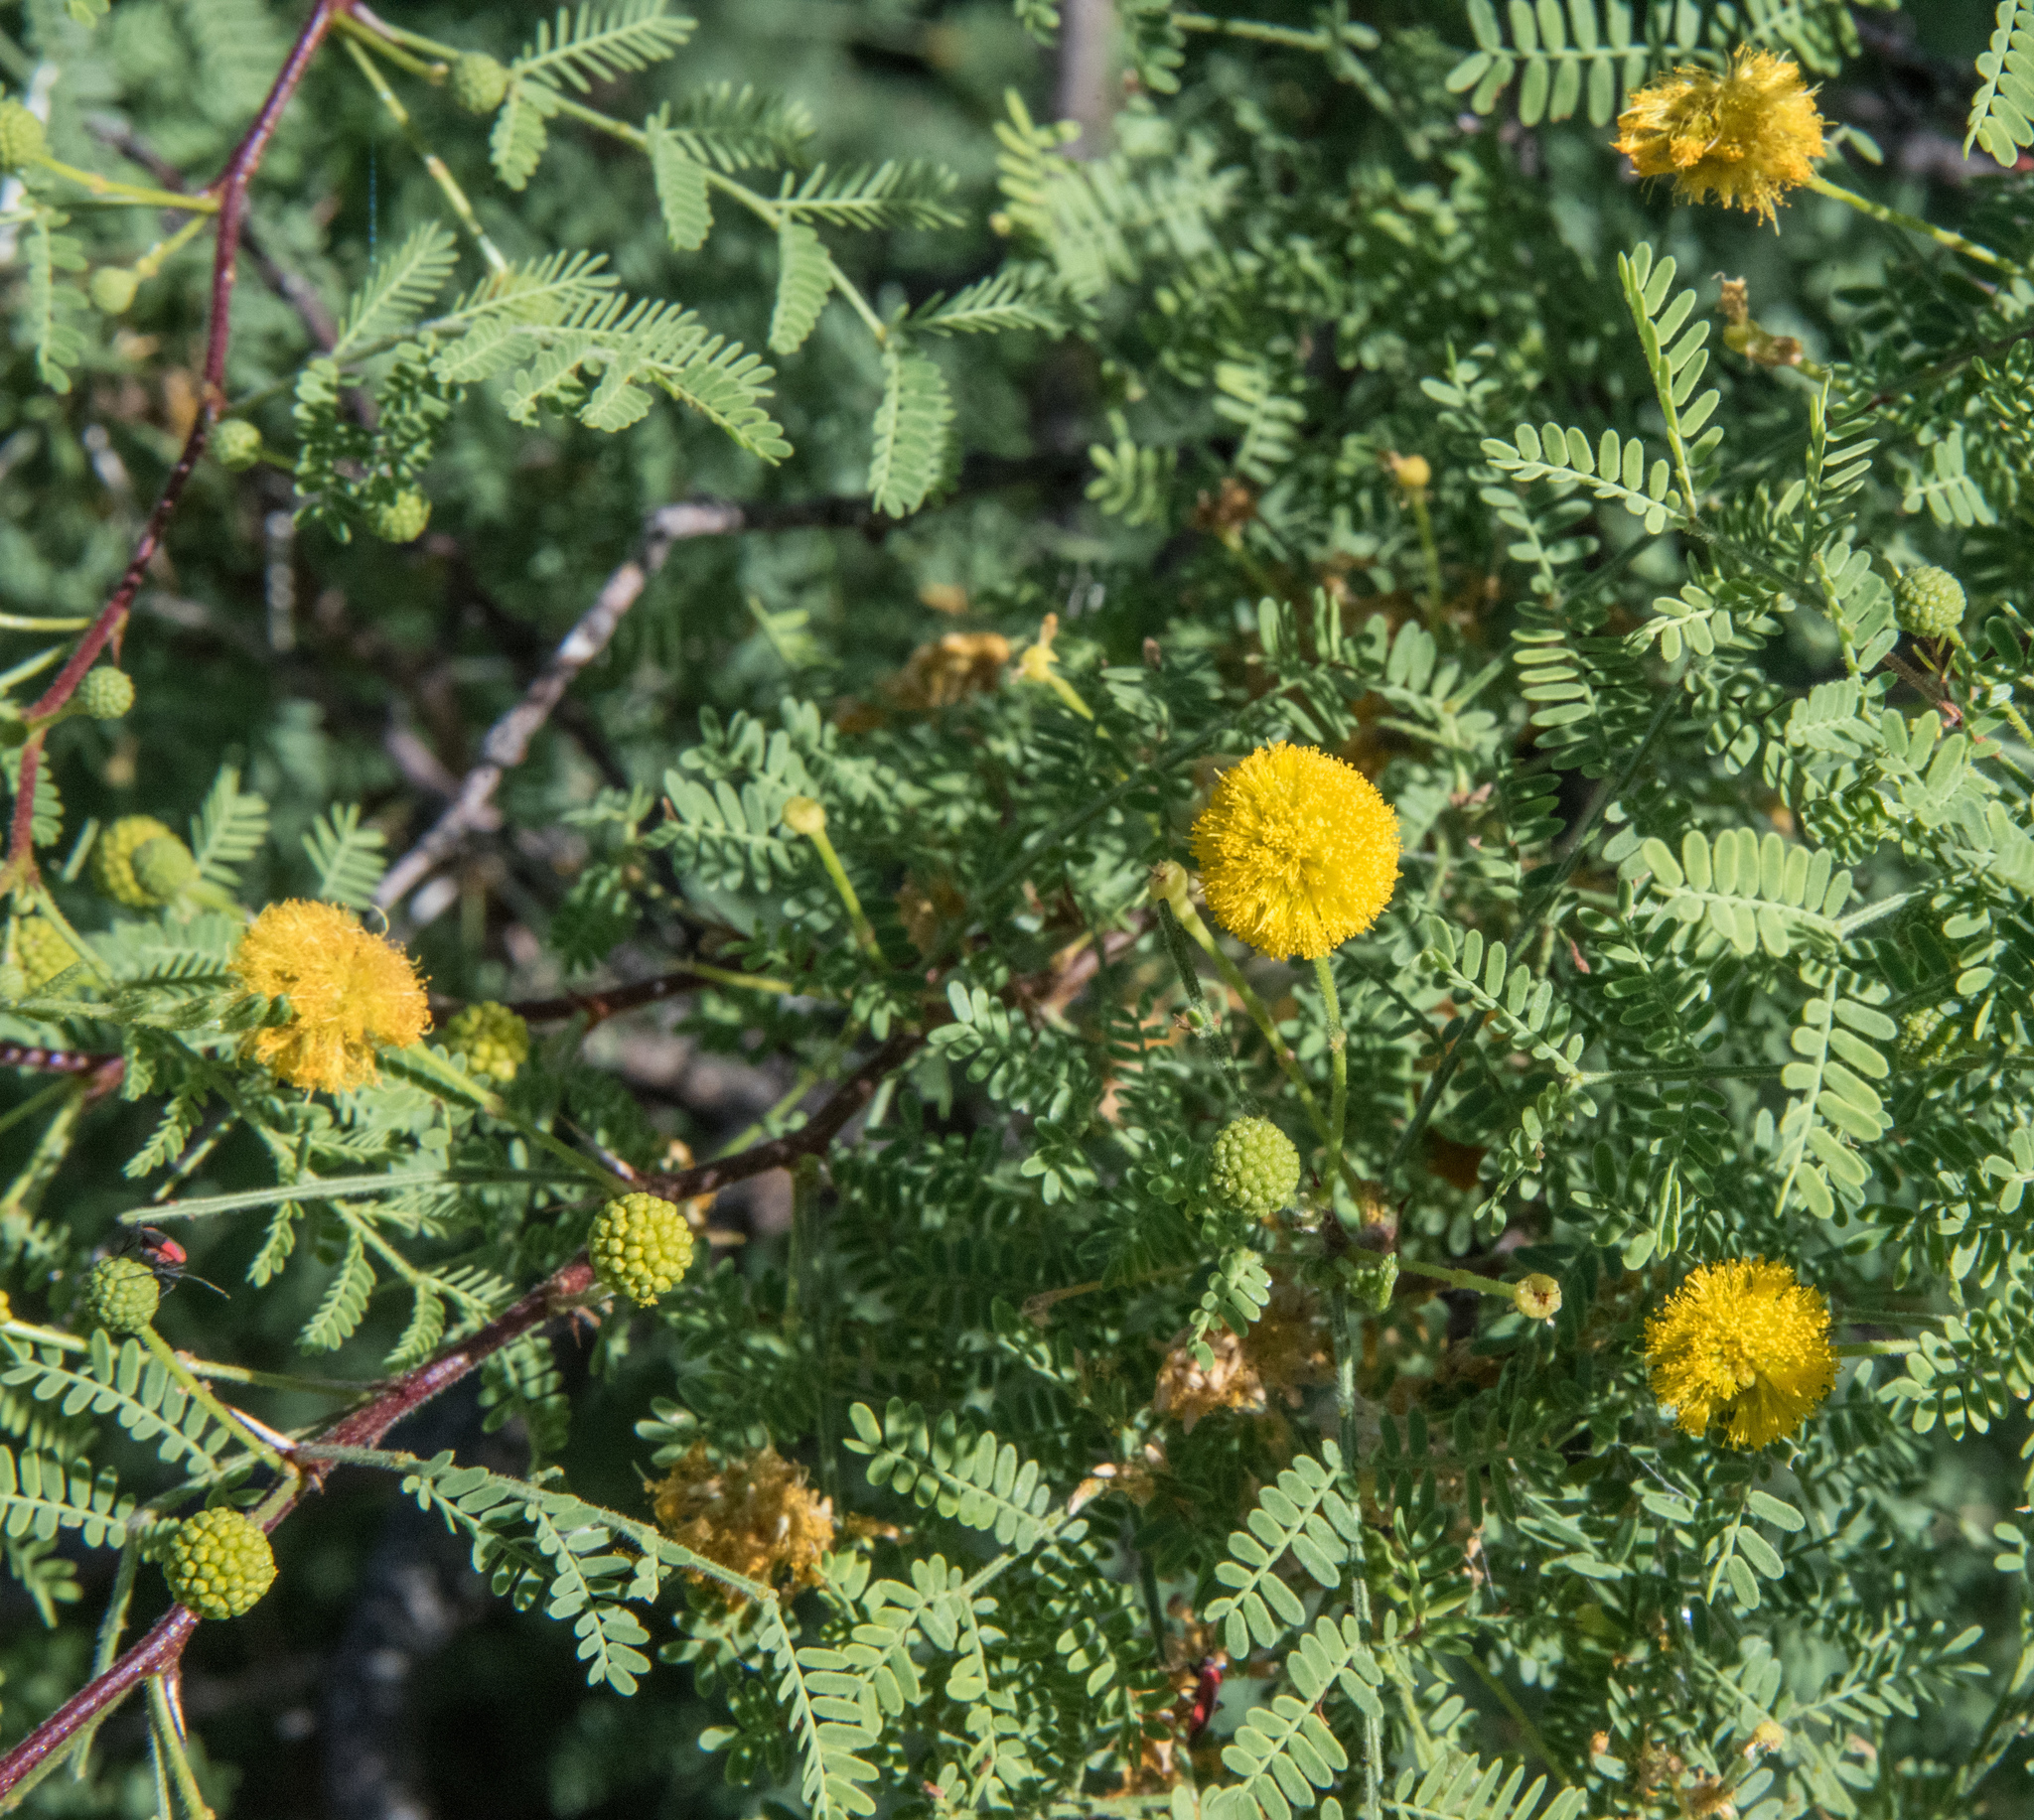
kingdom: Plantae
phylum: Tracheophyta
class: Magnoliopsida
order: Fabales
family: Fabaceae
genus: Vachellia
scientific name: Vachellia constricta
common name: Mescat acacia
